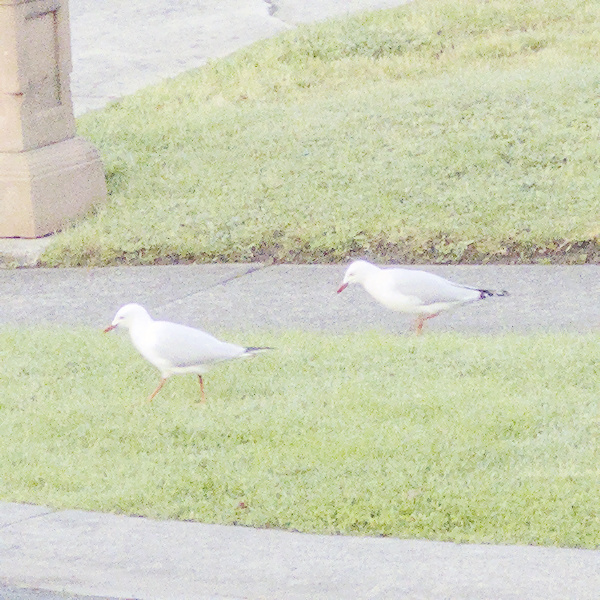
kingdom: Animalia
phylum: Chordata
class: Aves
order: Charadriiformes
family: Laridae
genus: Chroicocephalus
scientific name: Chroicocephalus novaehollandiae
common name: Silver gull
